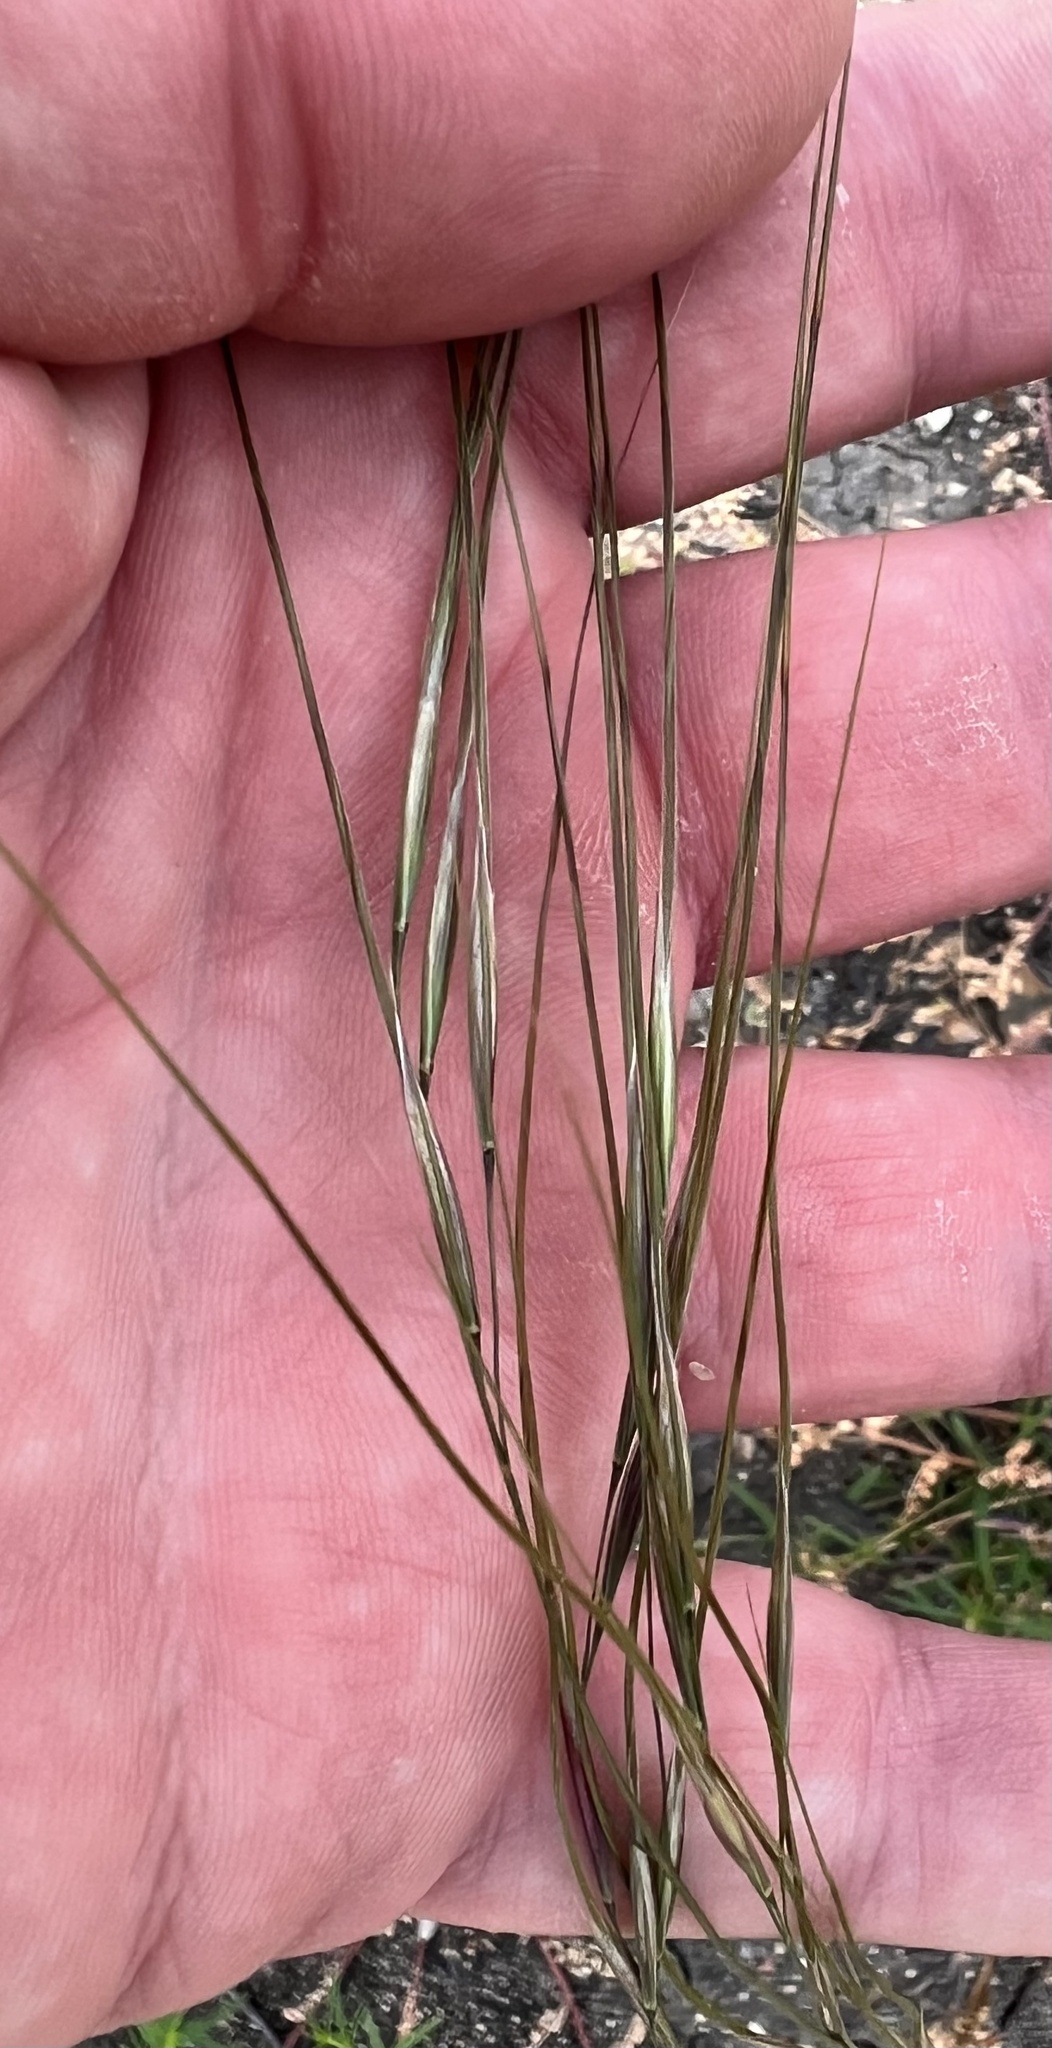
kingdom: Plantae
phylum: Tracheophyta
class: Liliopsida
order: Poales
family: Poaceae
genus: Nassella
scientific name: Nassella leucotricha
